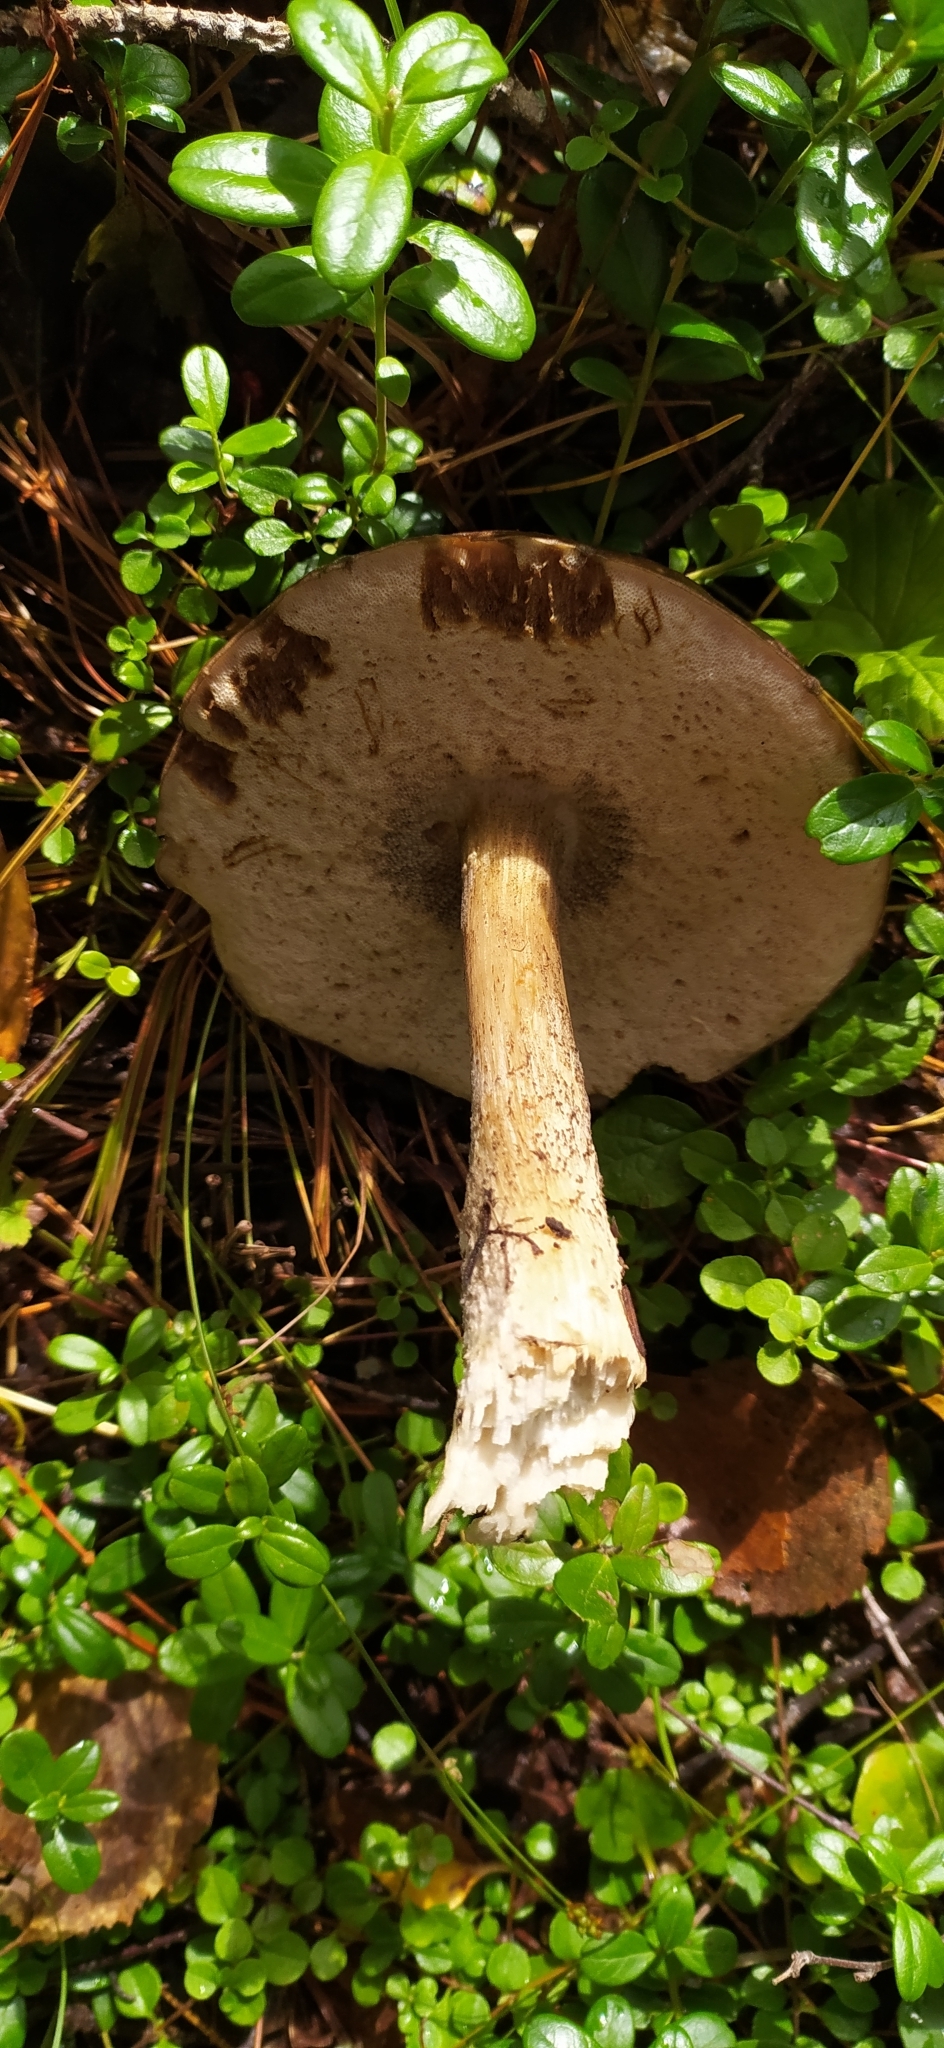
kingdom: Fungi
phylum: Basidiomycota
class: Agaricomycetes
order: Boletales
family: Boletaceae
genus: Leccinum
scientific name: Leccinum scabrum
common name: Blushing bolete
